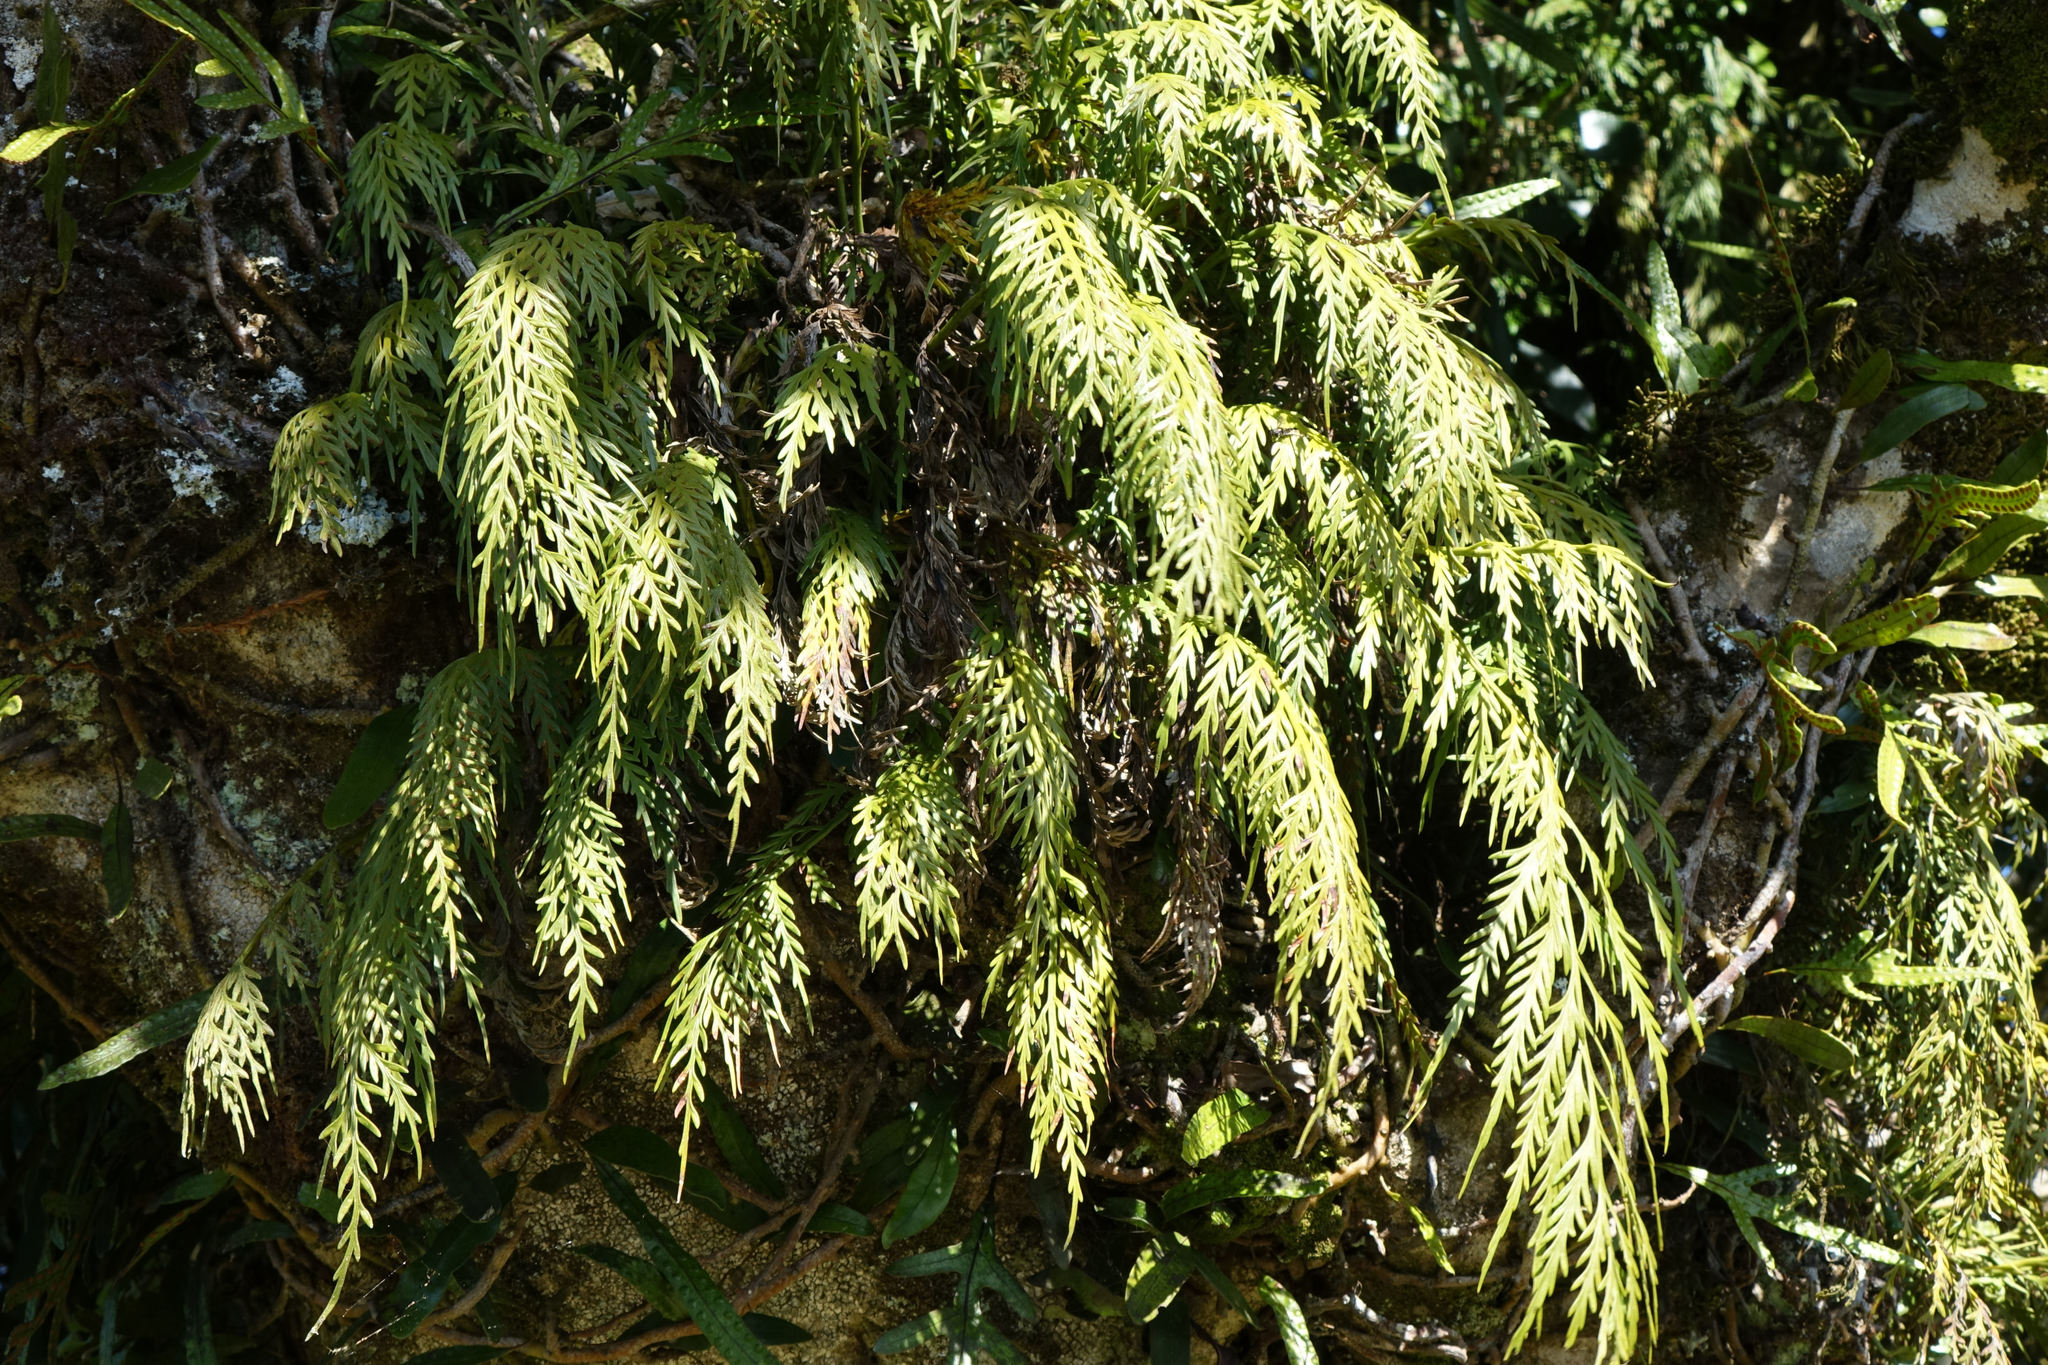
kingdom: Plantae
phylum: Tracheophyta
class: Polypodiopsida
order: Polypodiales
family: Aspleniaceae
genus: Asplenium
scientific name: Asplenium flaccidum
